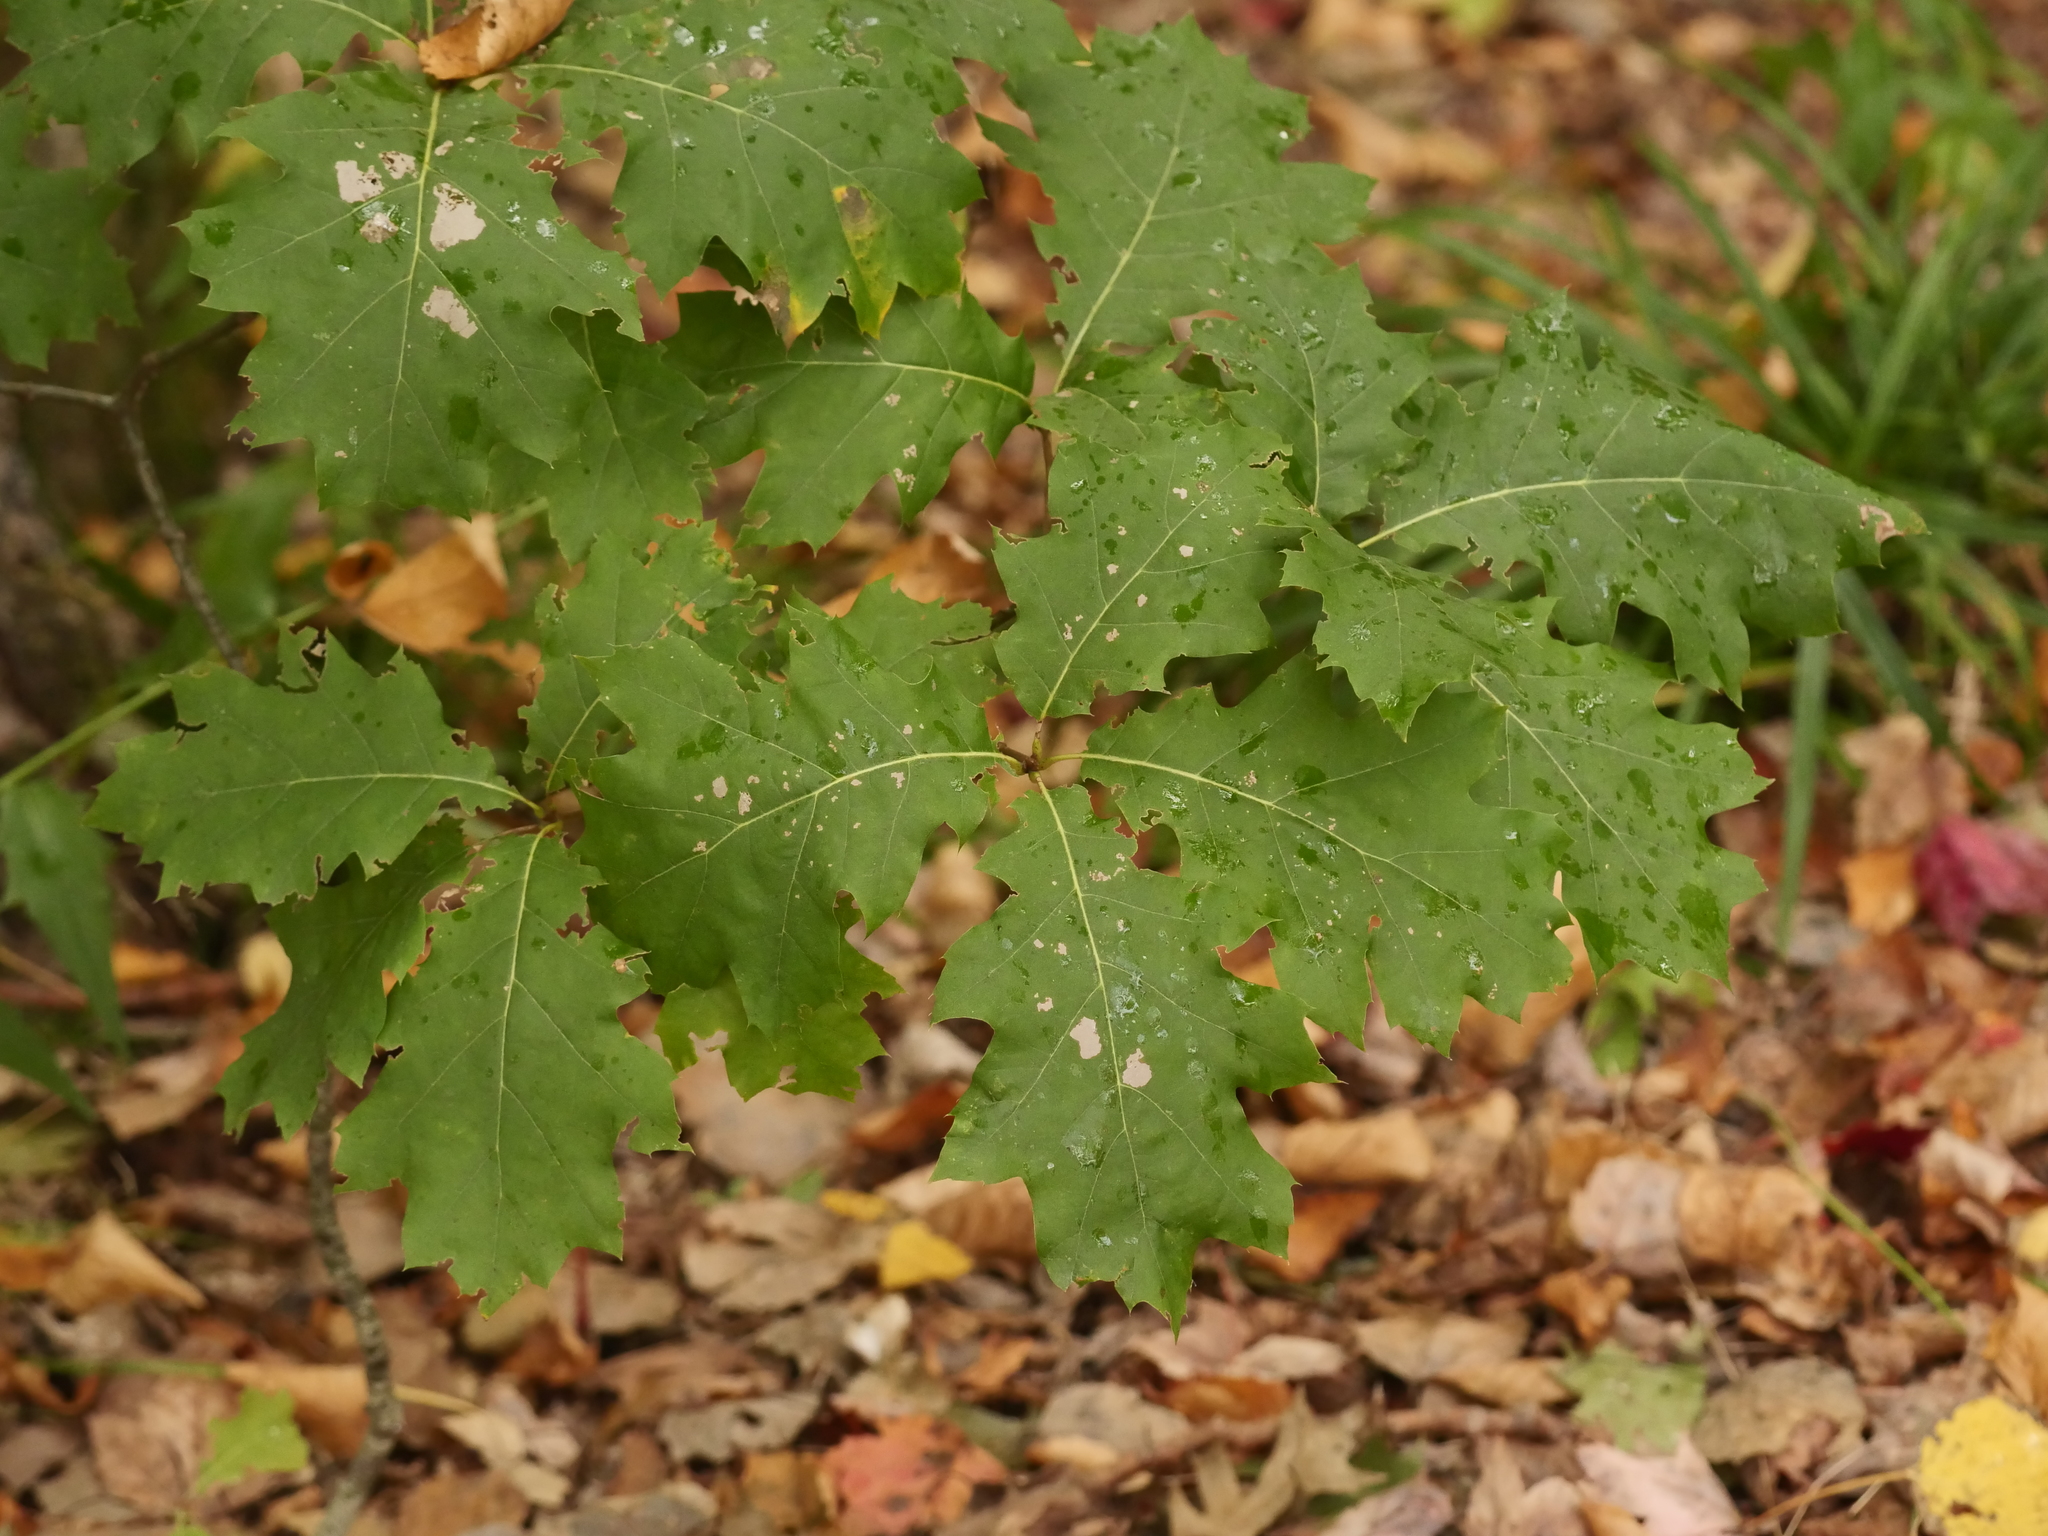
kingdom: Plantae
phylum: Tracheophyta
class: Magnoliopsida
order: Fagales
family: Fagaceae
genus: Quercus
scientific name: Quercus rubra
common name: Red oak
